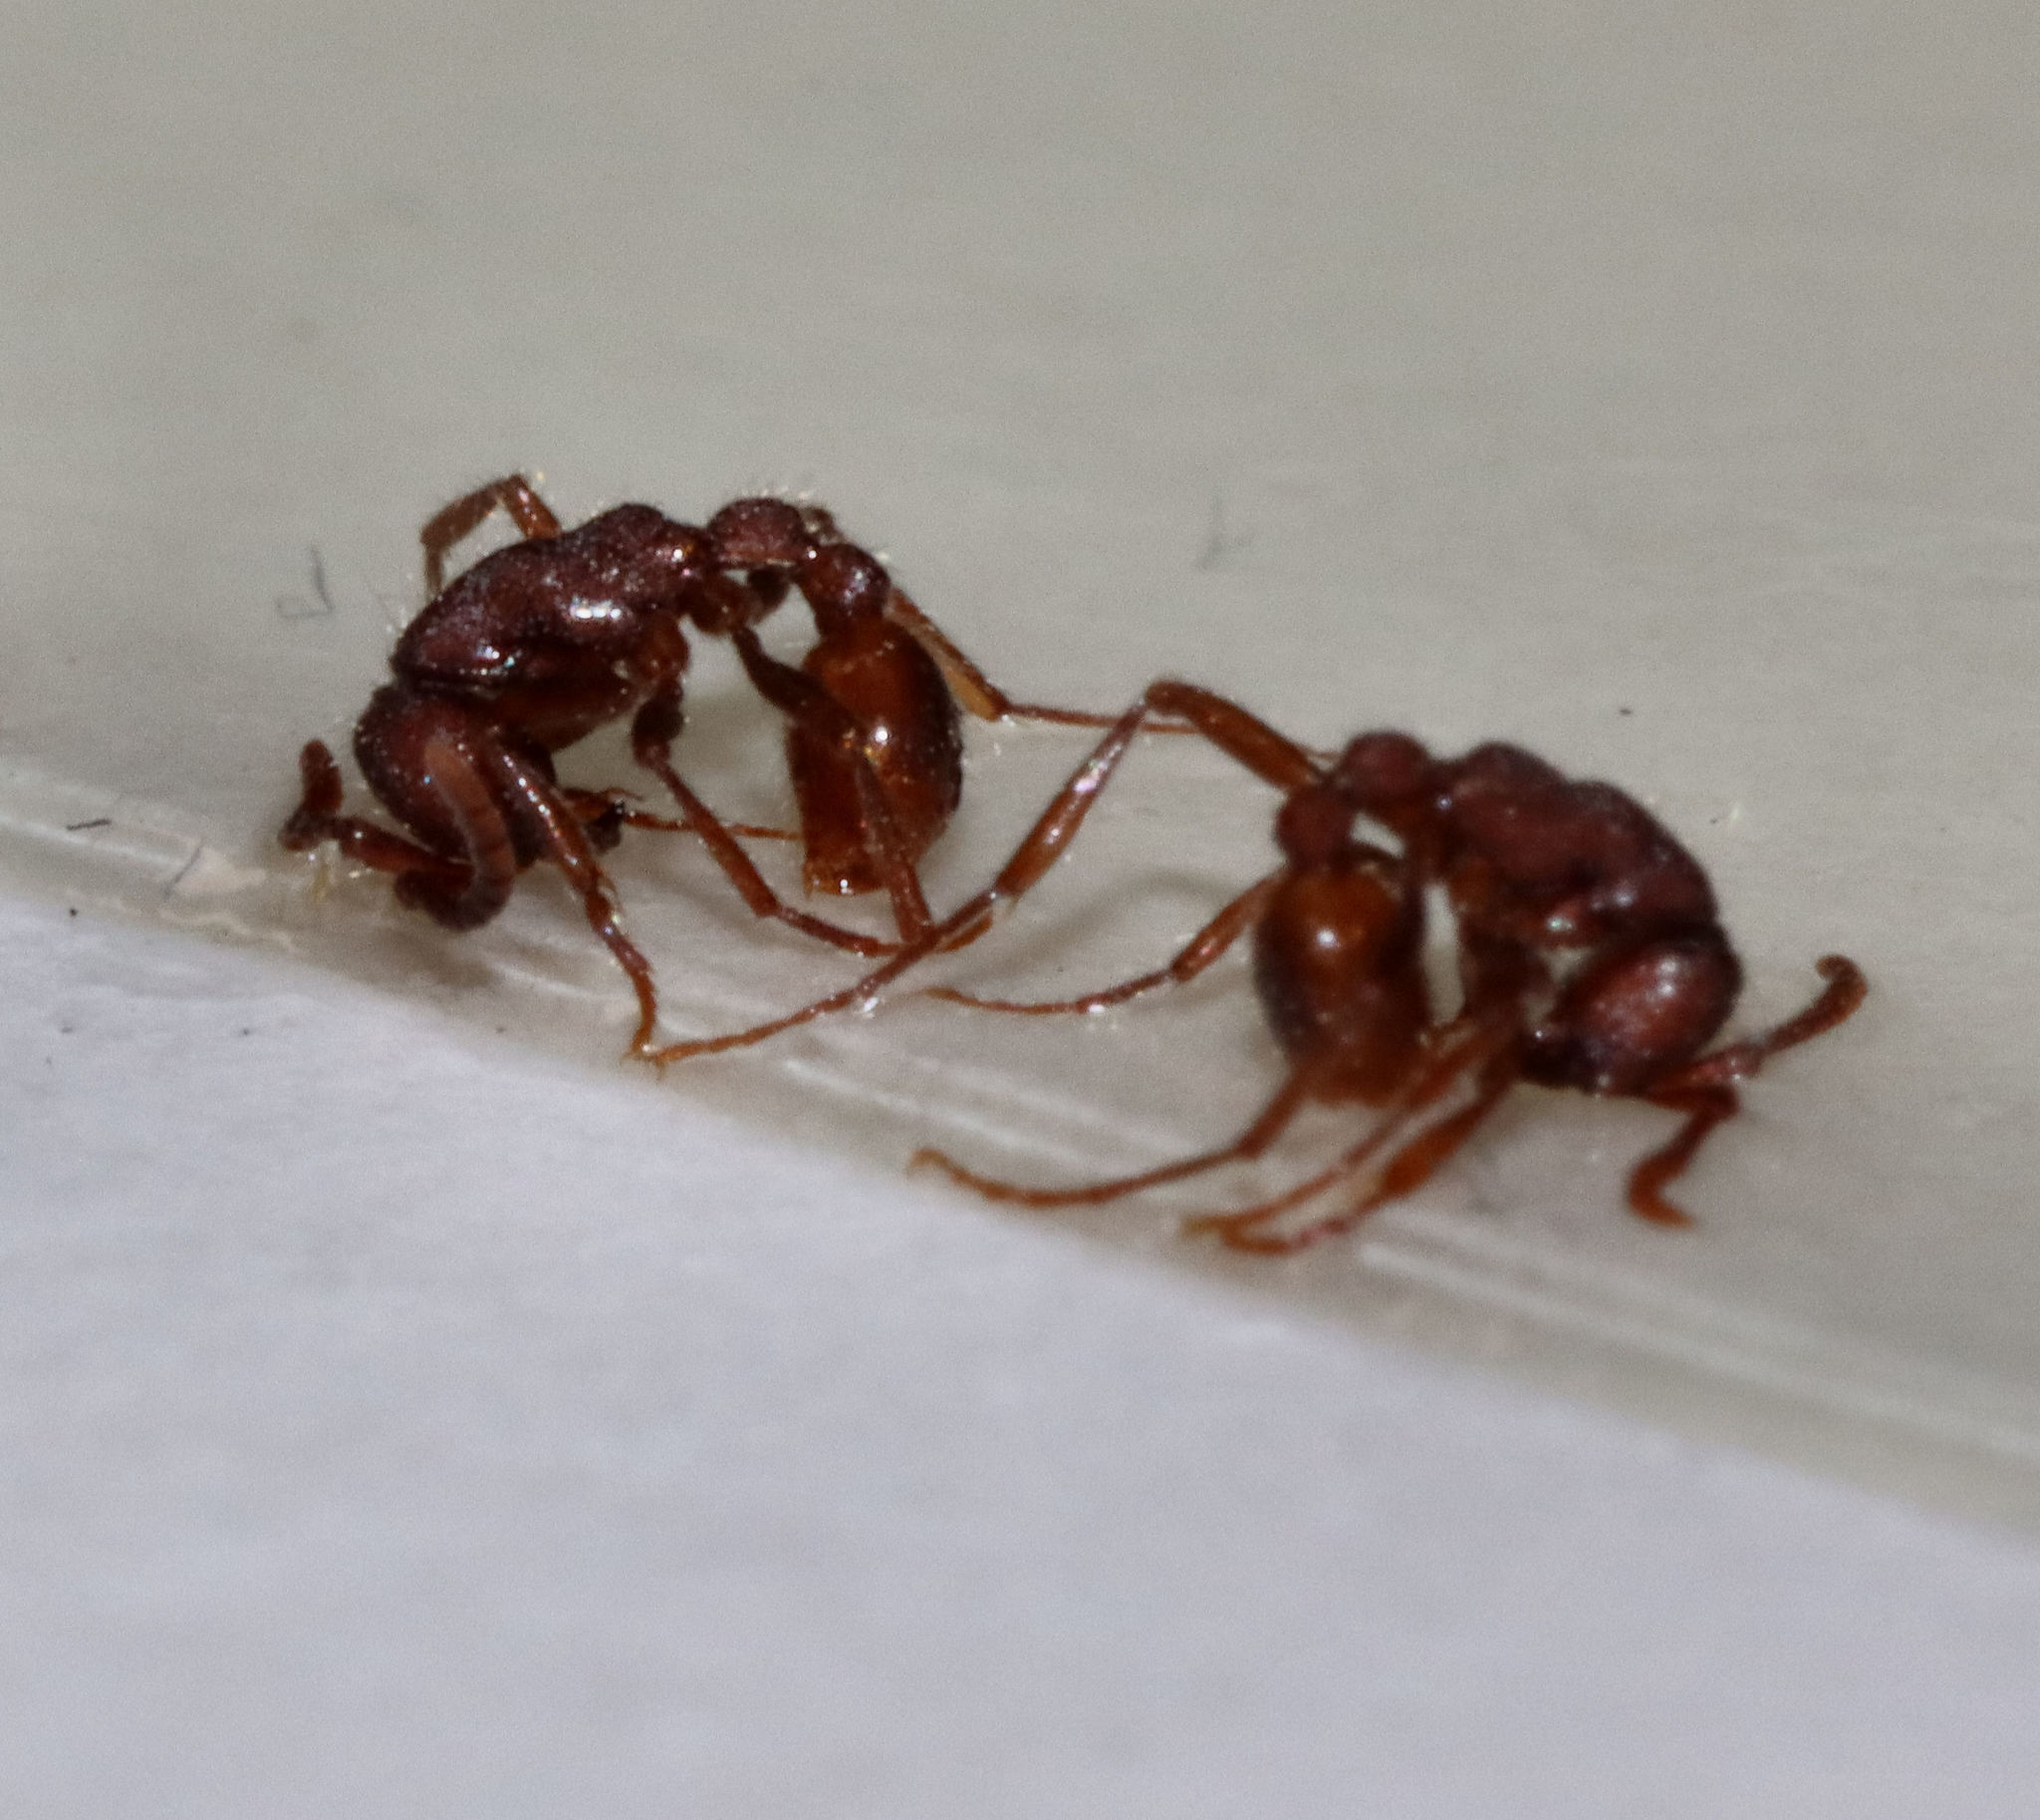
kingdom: Animalia
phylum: Arthropoda
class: Insecta
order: Hymenoptera
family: Formicidae
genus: Neivamyrmex
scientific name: Neivamyrmex nigrescens
